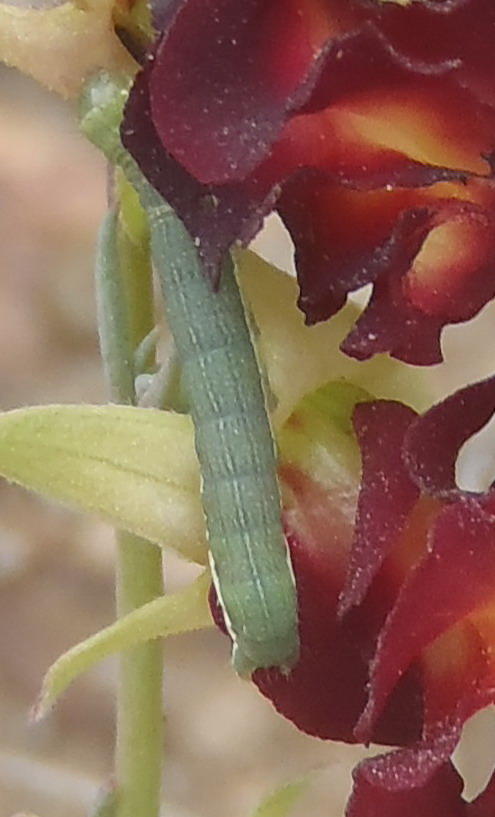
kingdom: Animalia
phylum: Arthropoda
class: Insecta
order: Lepidoptera
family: Noctuidae
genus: Helicoverpa
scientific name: Helicoverpa armigera
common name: Cotton bollworm
